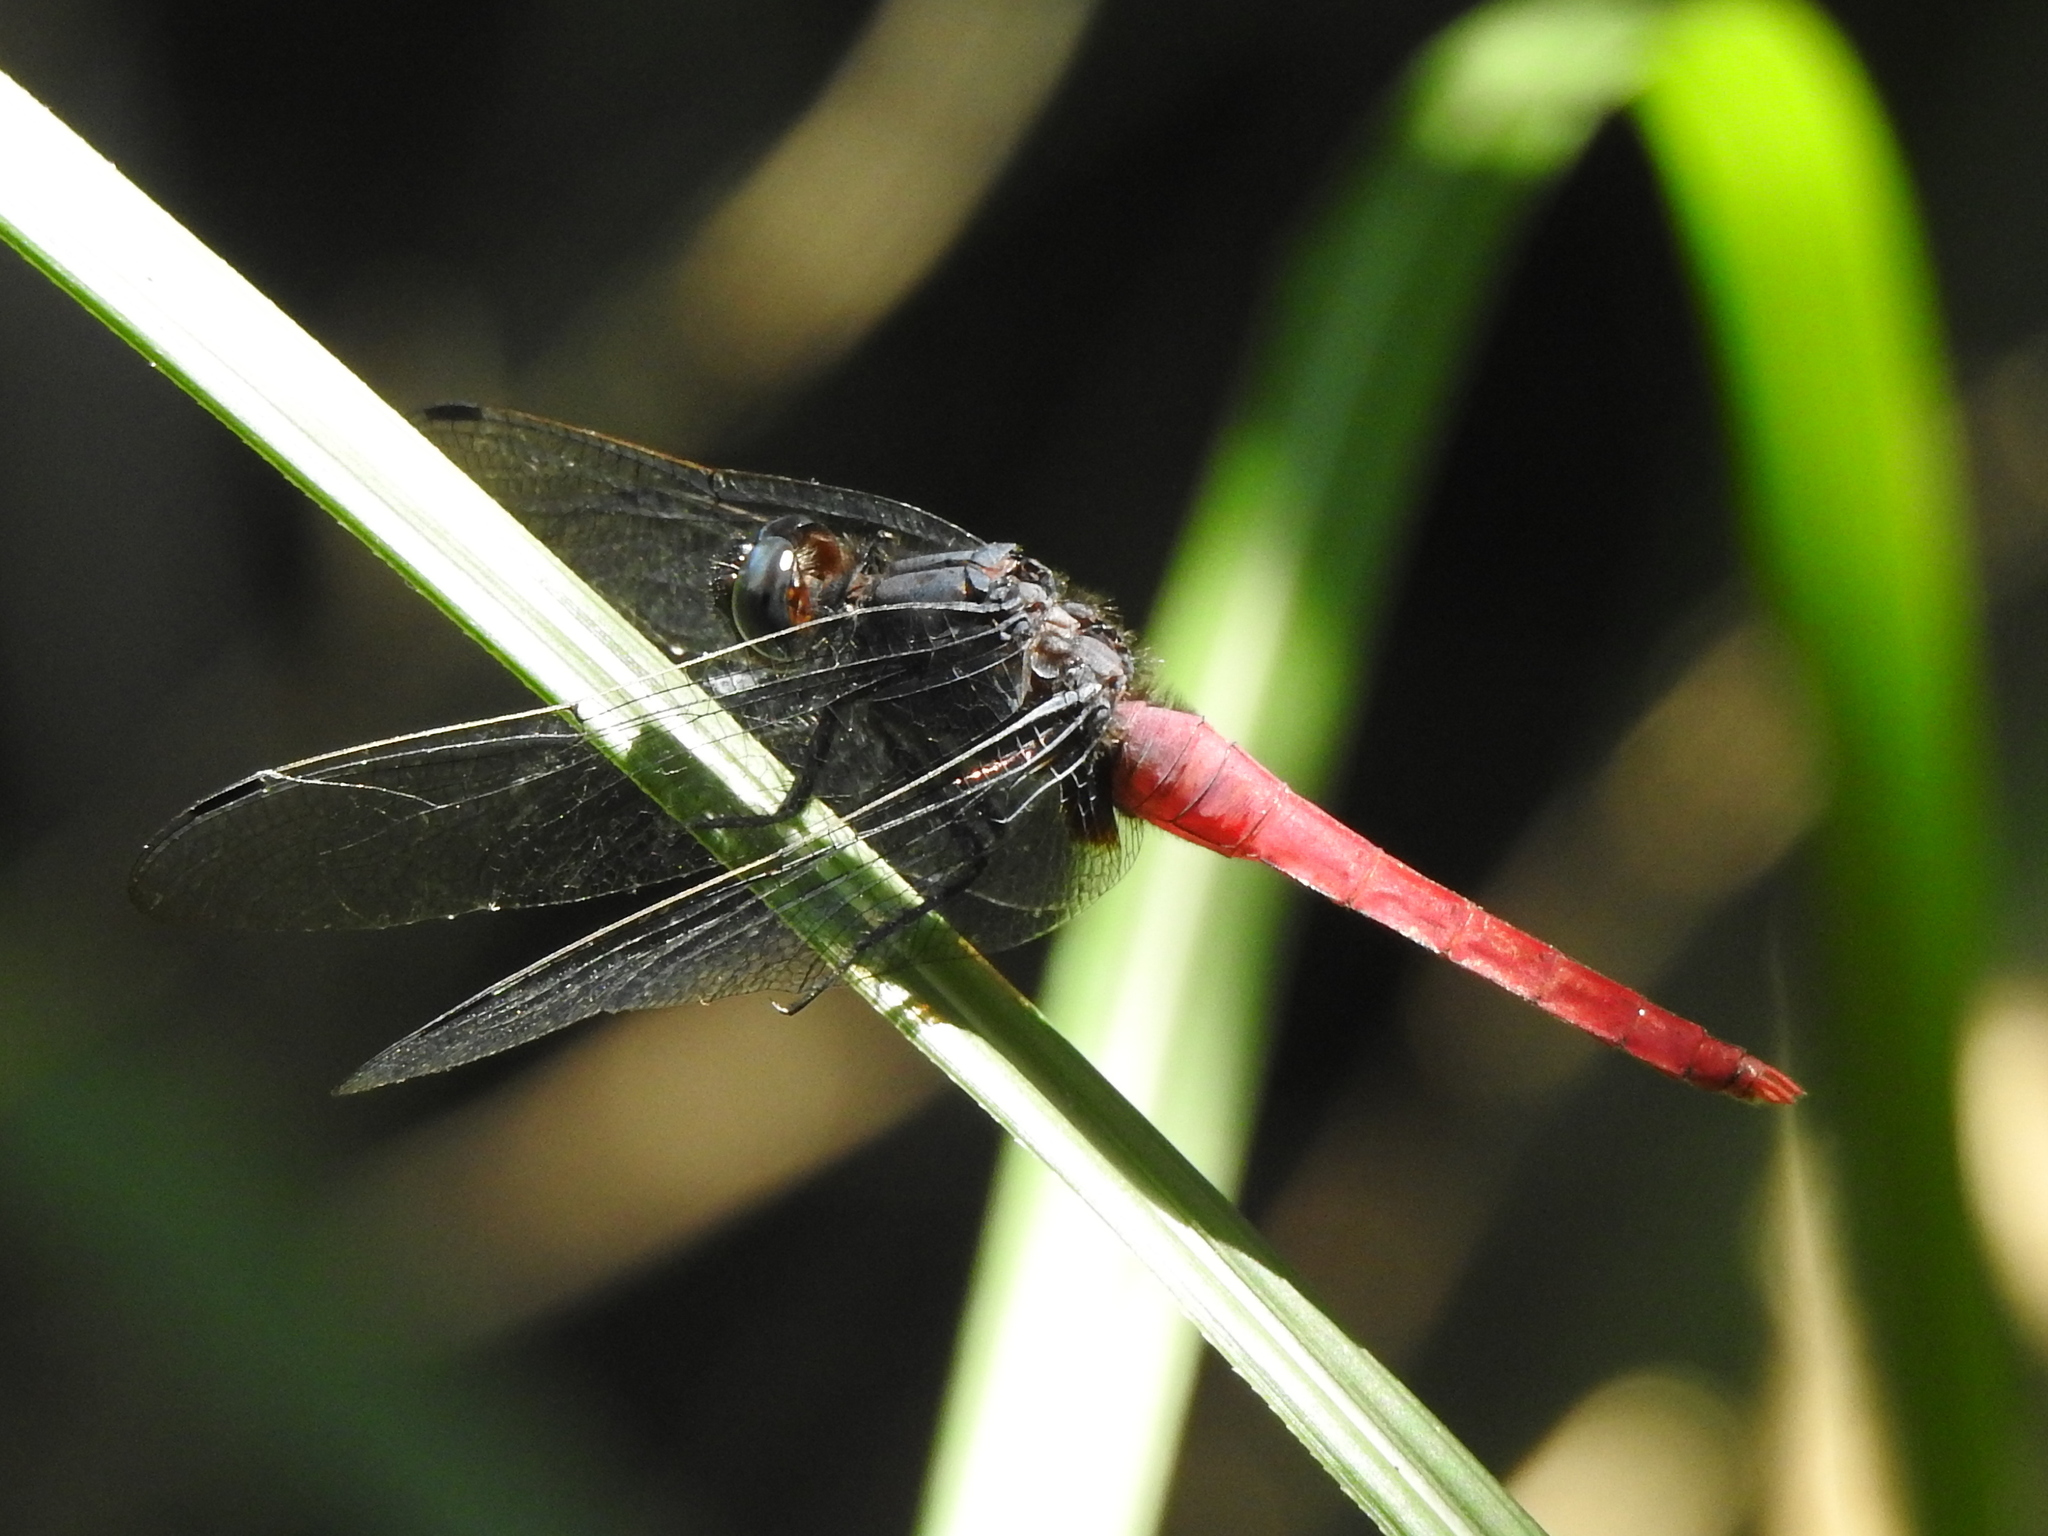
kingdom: Animalia
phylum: Arthropoda
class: Insecta
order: Odonata
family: Libellulidae
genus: Orthetrum
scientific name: Orthetrum pruinosum
